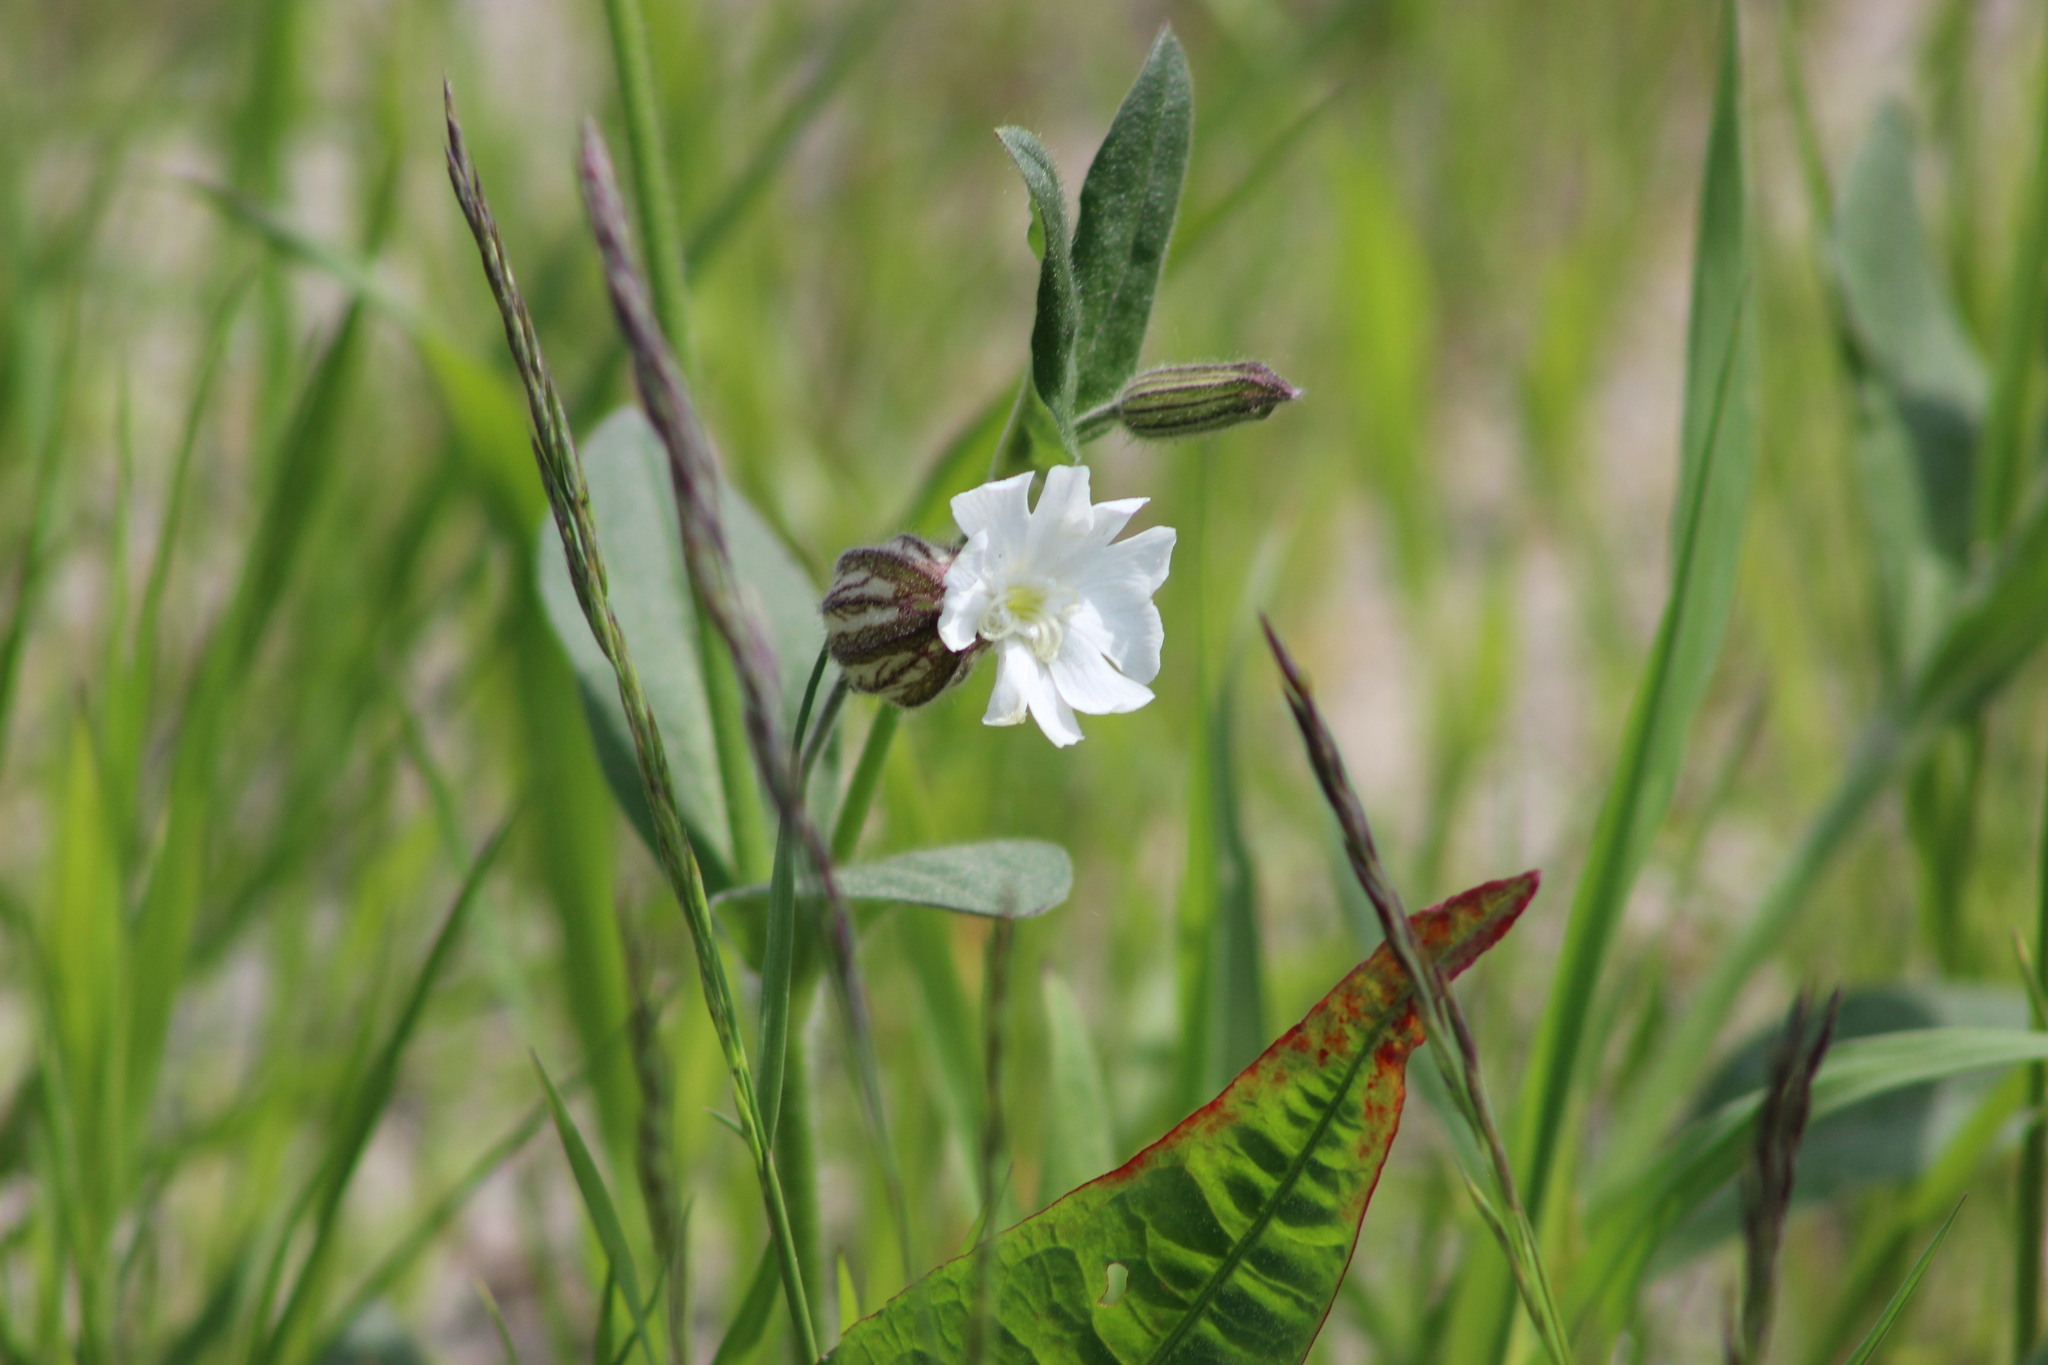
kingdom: Plantae
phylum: Tracheophyta
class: Magnoliopsida
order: Caryophyllales
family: Caryophyllaceae
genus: Silene
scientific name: Silene latifolia
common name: White campion
